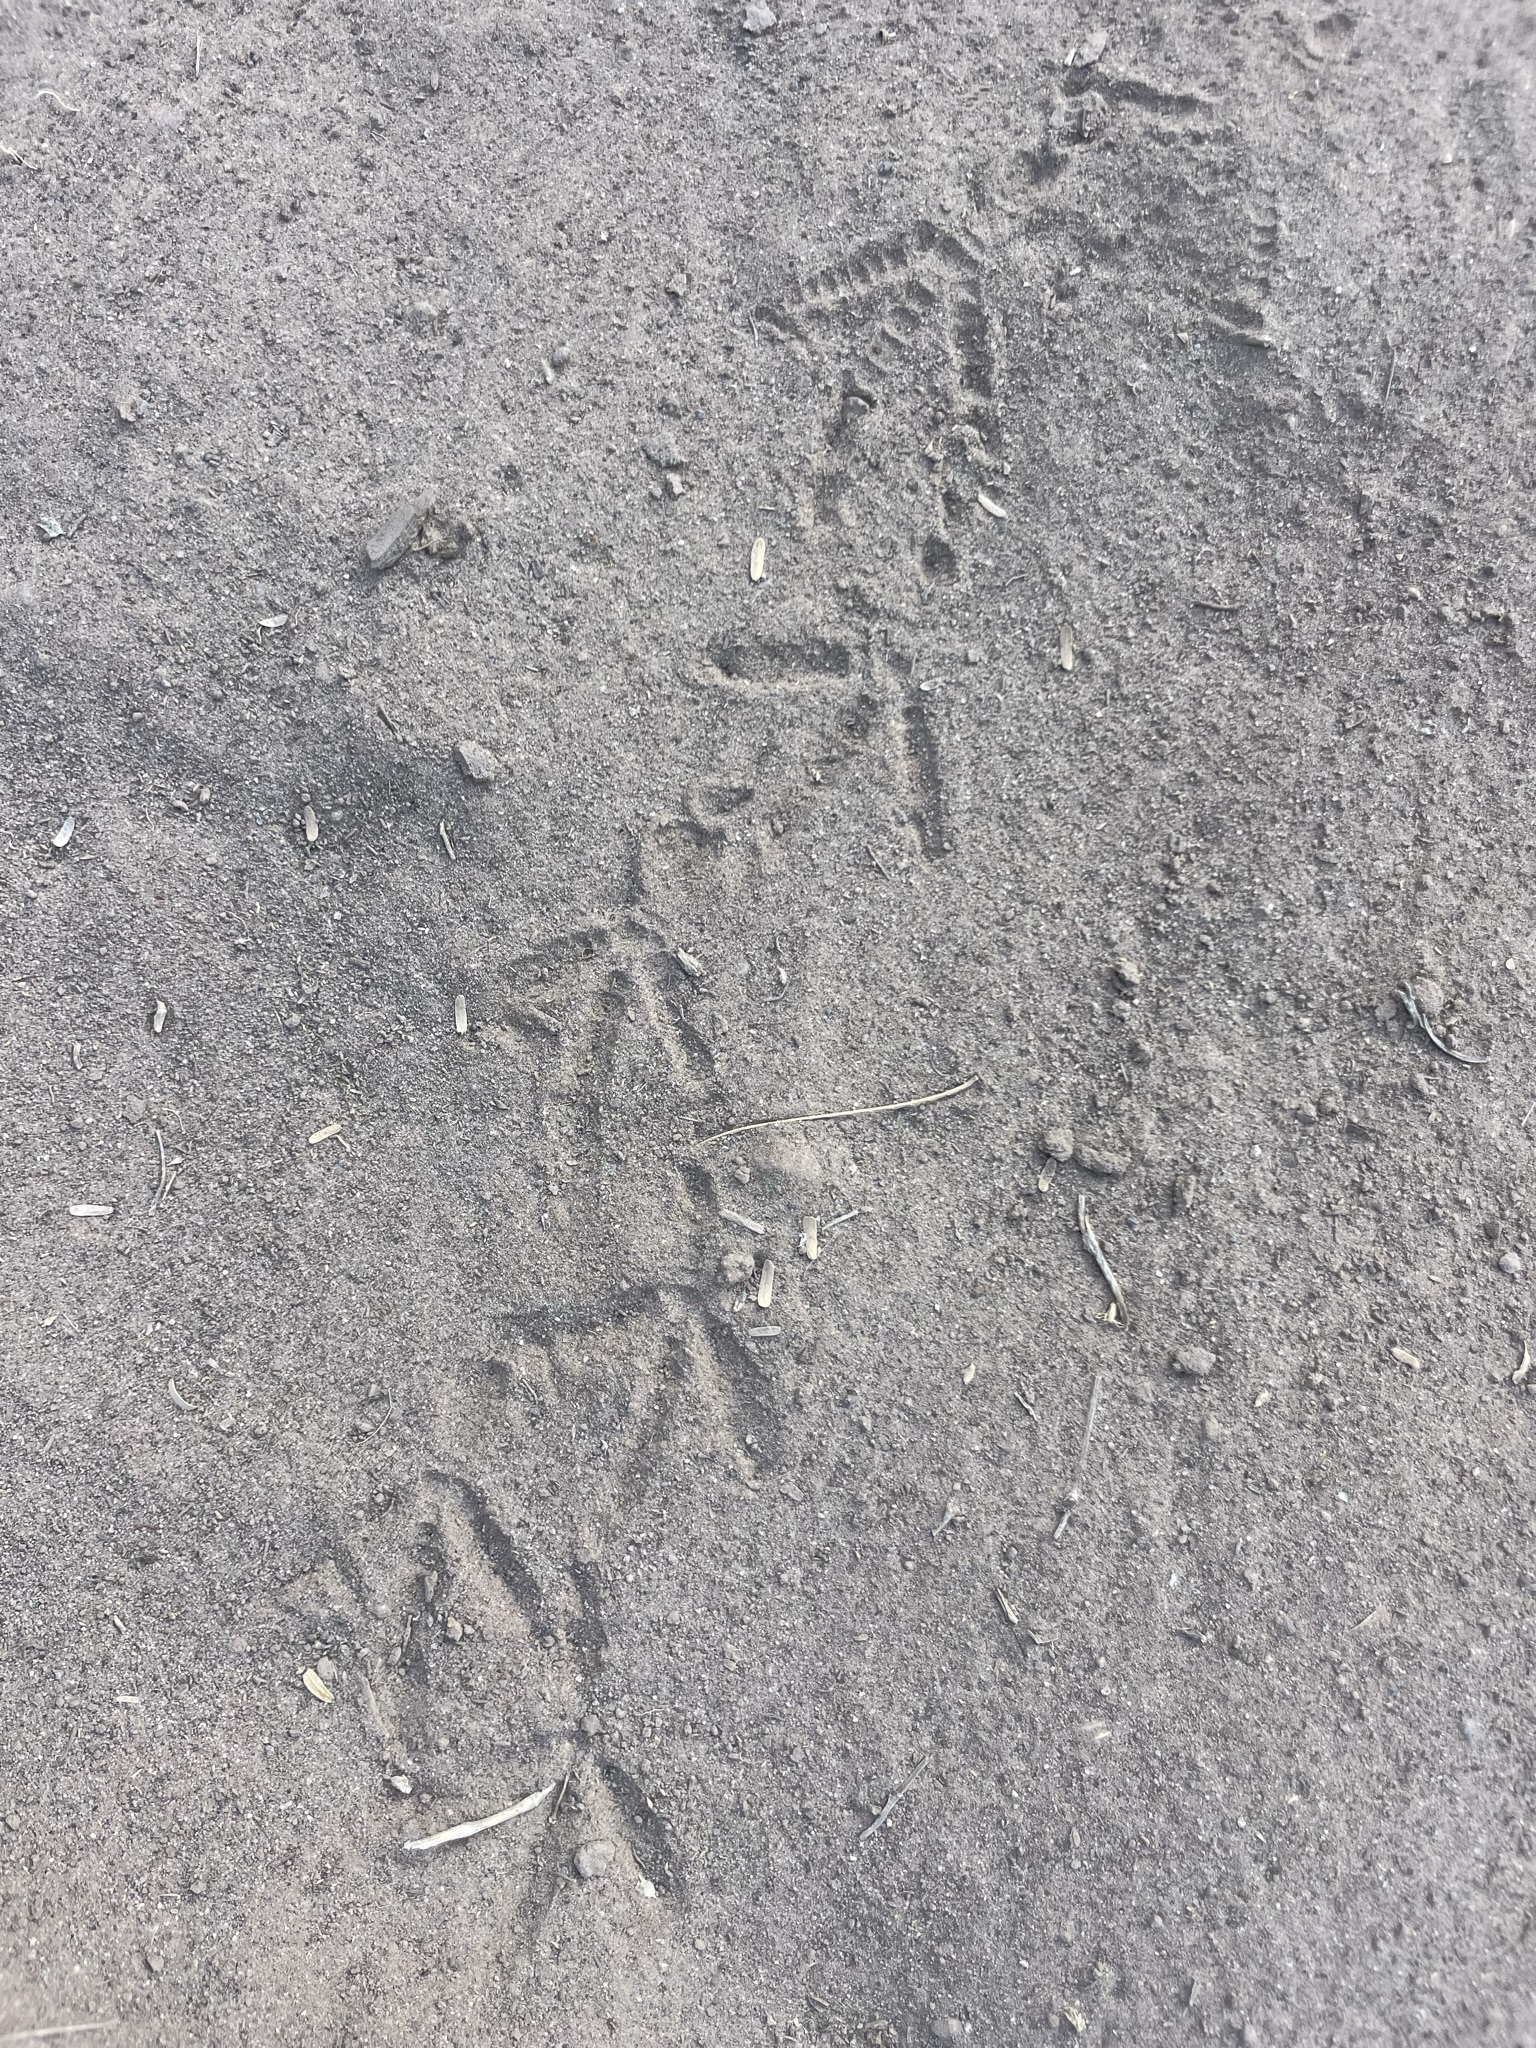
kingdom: Animalia
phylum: Chordata
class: Aves
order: Galliformes
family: Odontophoridae
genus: Callipepla
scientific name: Callipepla californica
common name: California quail
